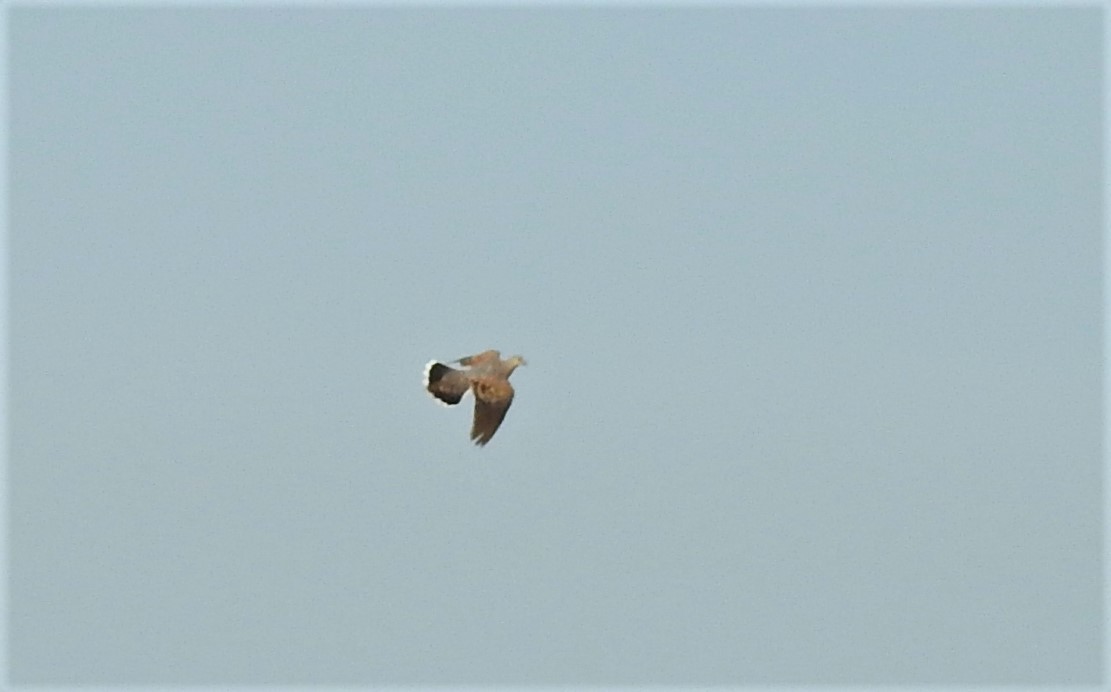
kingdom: Animalia
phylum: Chordata
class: Aves
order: Columbiformes
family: Columbidae
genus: Streptopelia
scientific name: Streptopelia orientalis
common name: Oriental turtle dove
